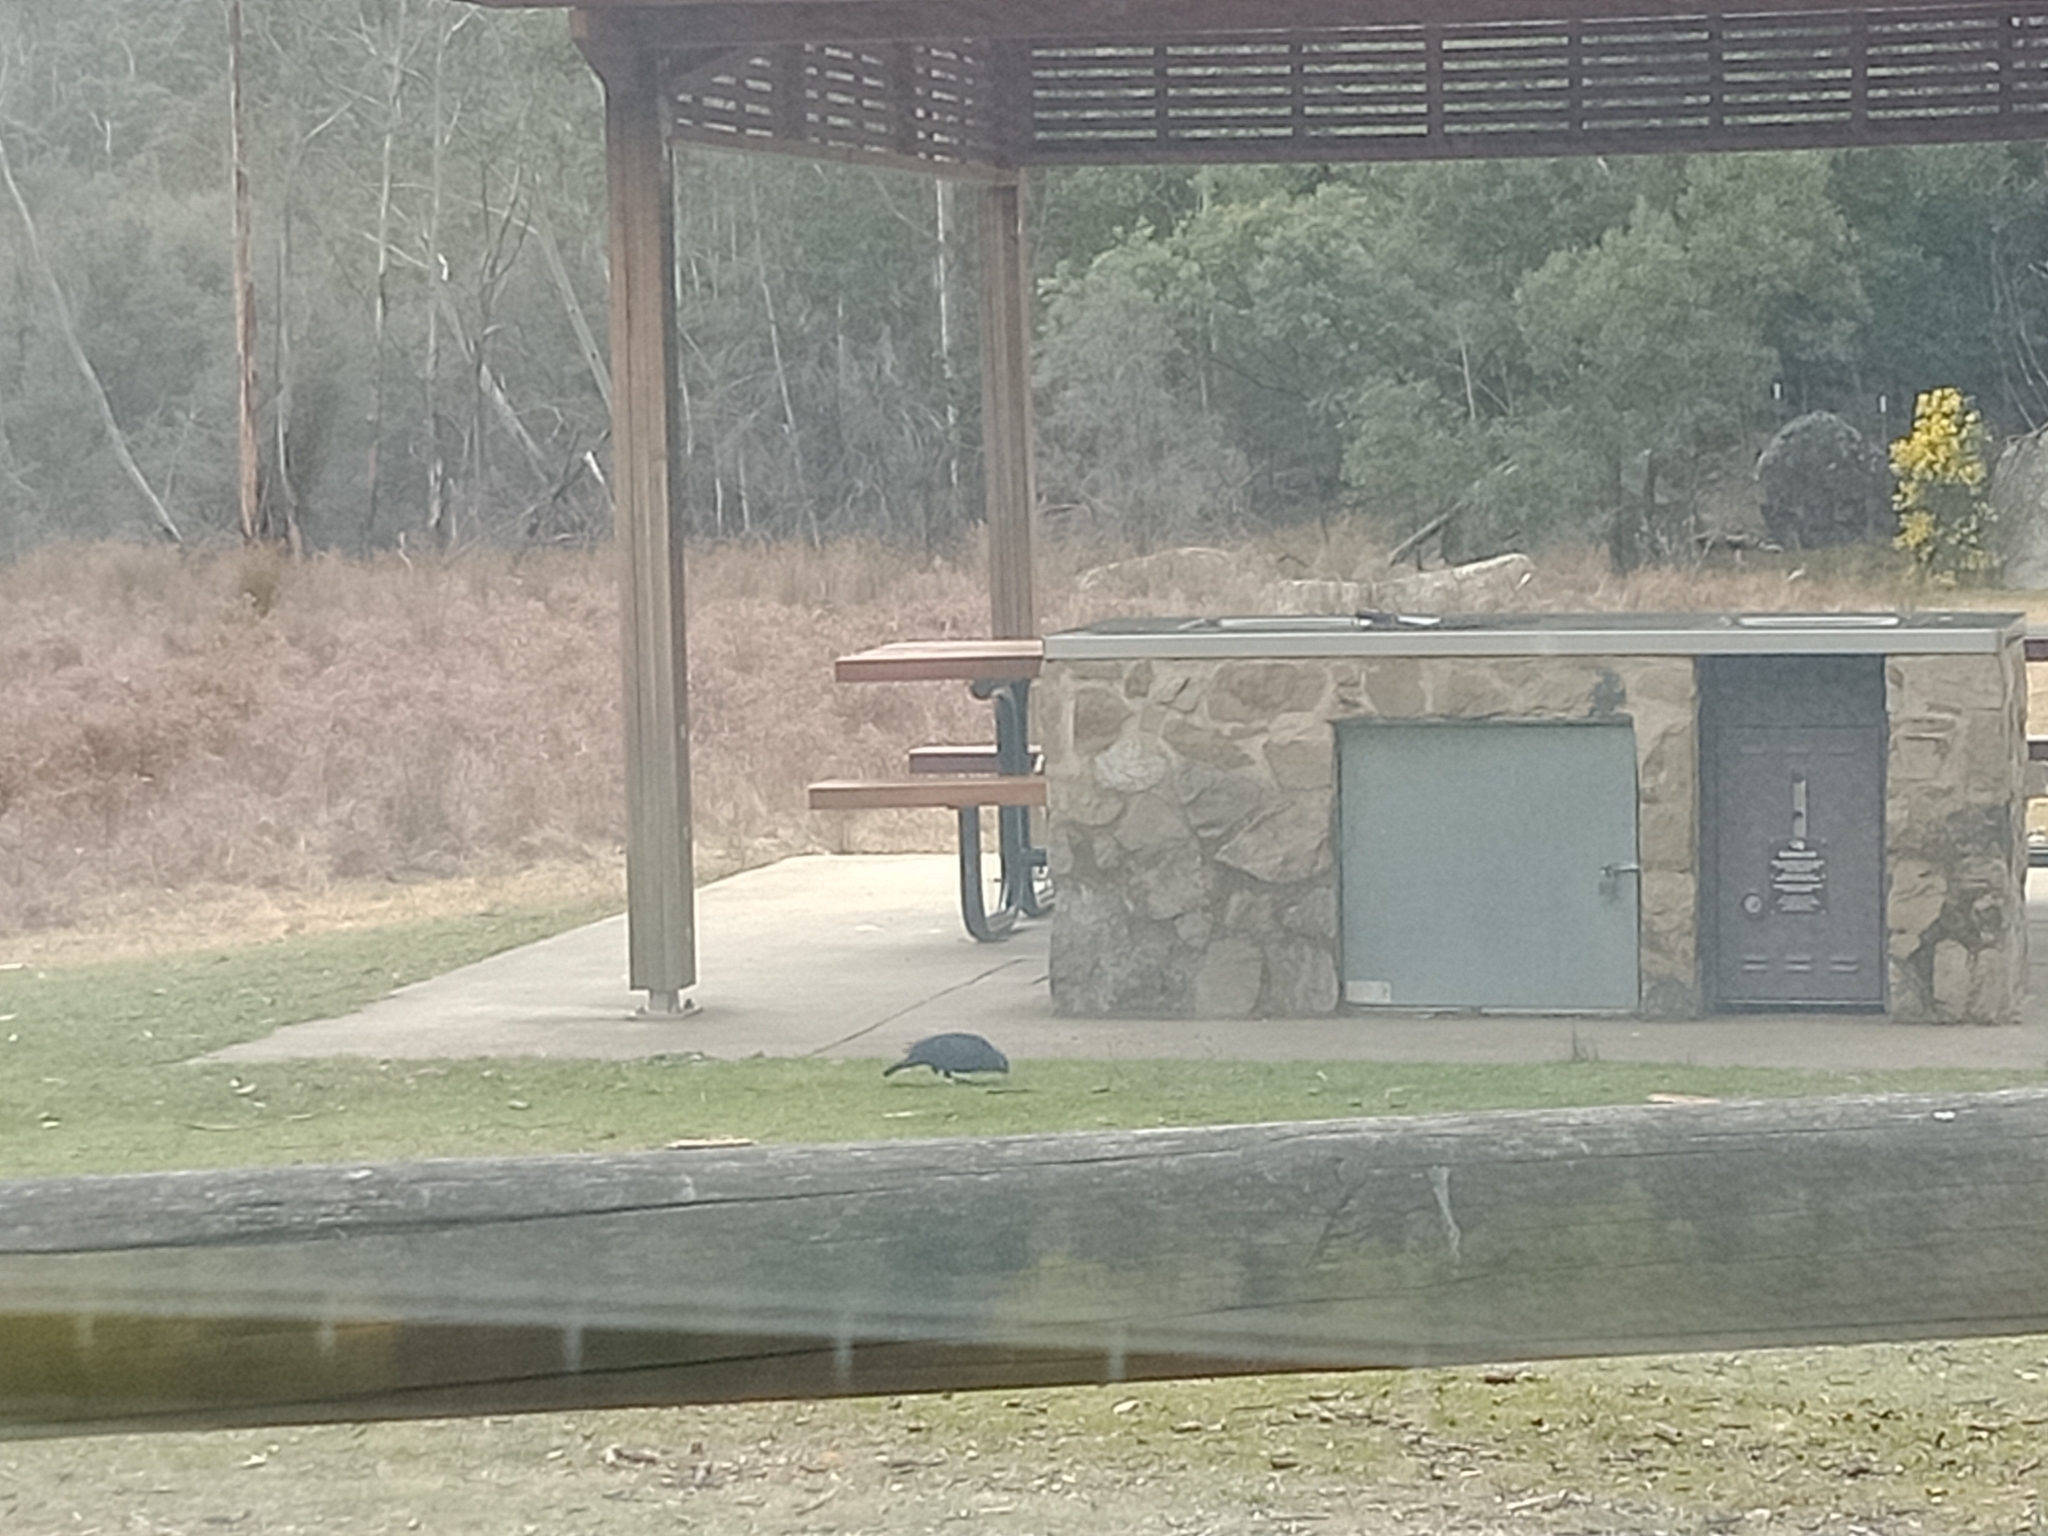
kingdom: Animalia
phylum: Chordata
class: Aves
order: Passeriformes
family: Ptilonorhynchidae
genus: Ptilonorhynchus
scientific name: Ptilonorhynchus violaceus
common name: Satin bowerbird
